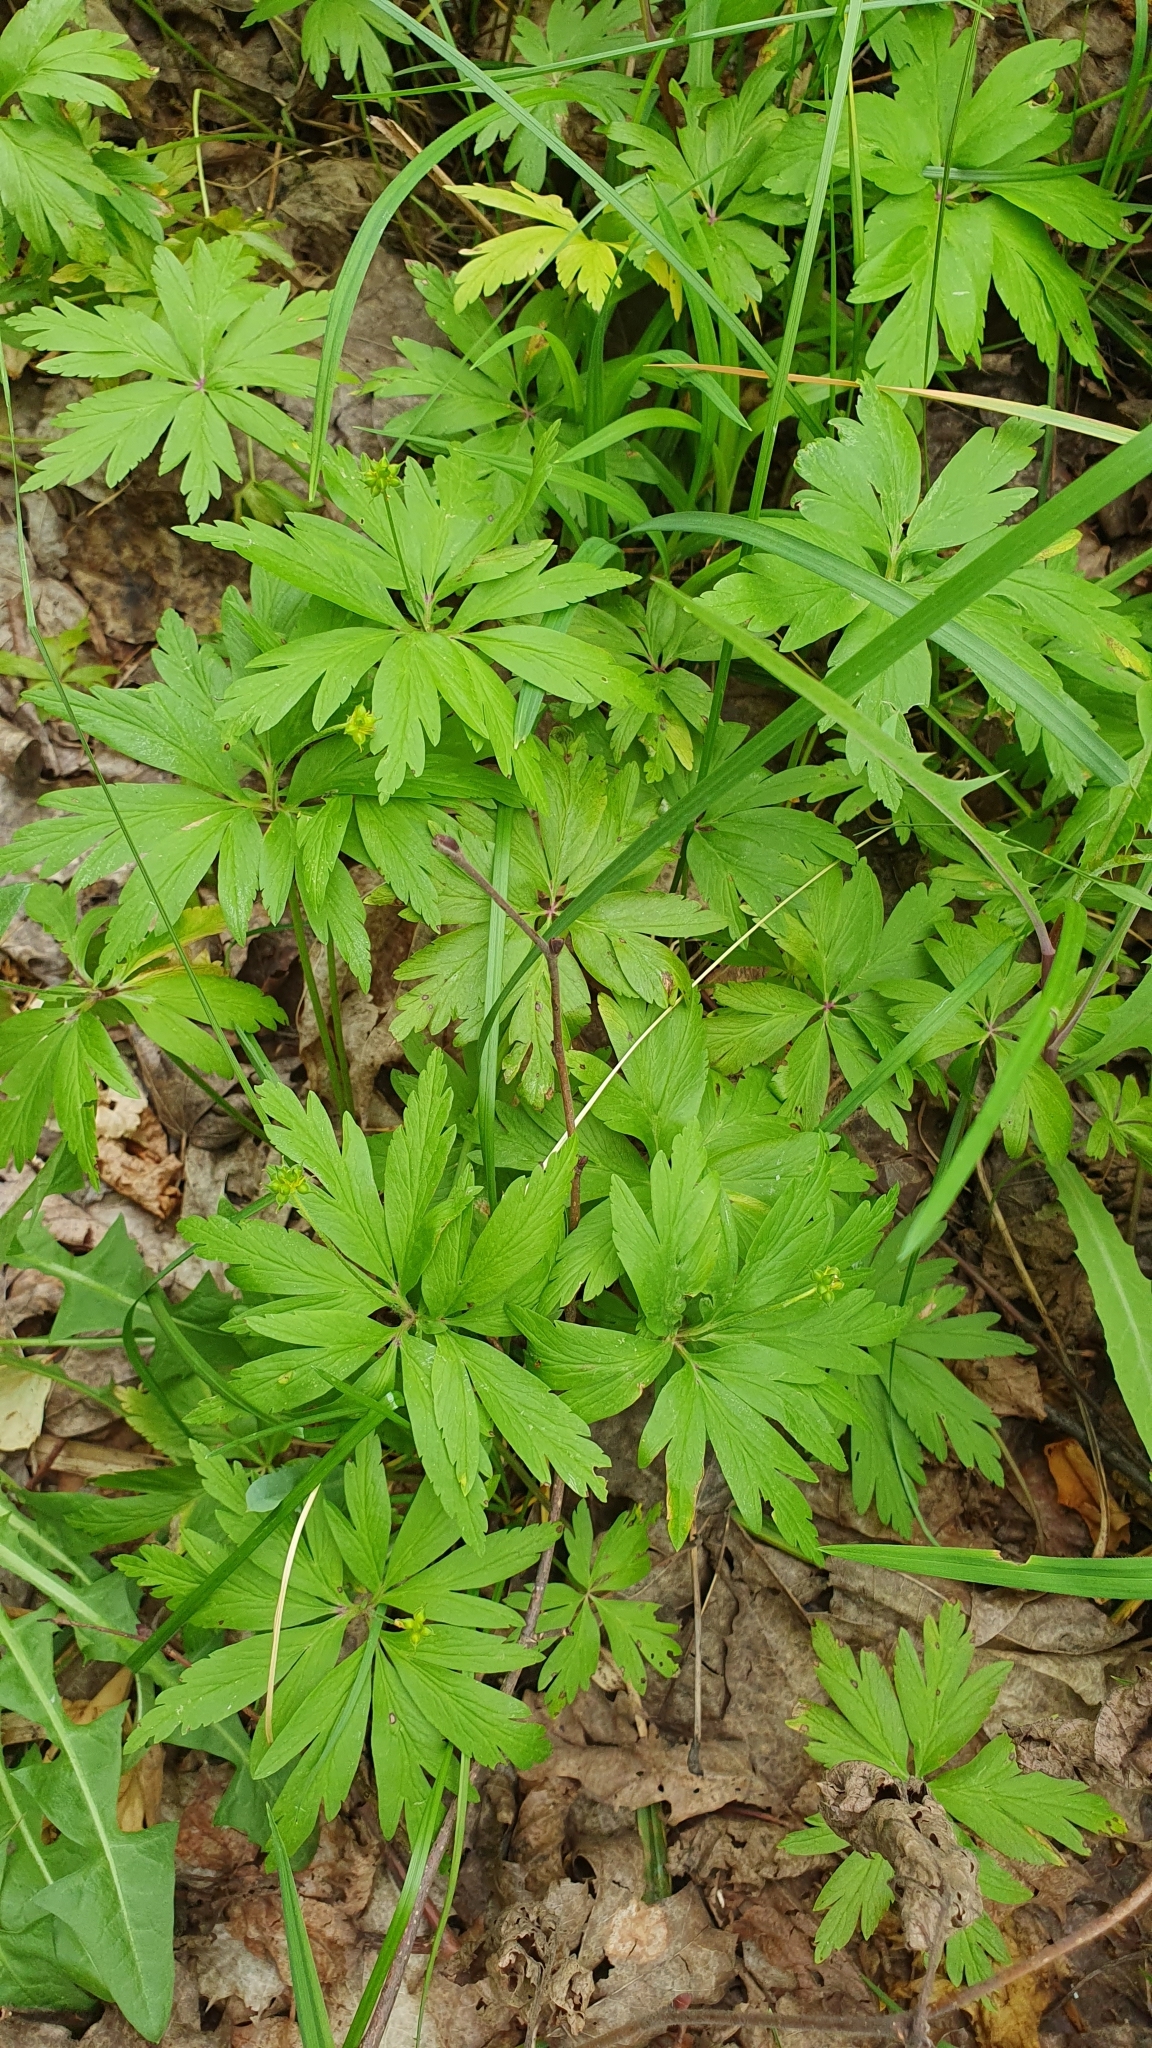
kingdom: Plantae
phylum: Tracheophyta
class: Magnoliopsida
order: Ranunculales
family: Ranunculaceae
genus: Anemone
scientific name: Anemone ranunculoides
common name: Yellow anemone
